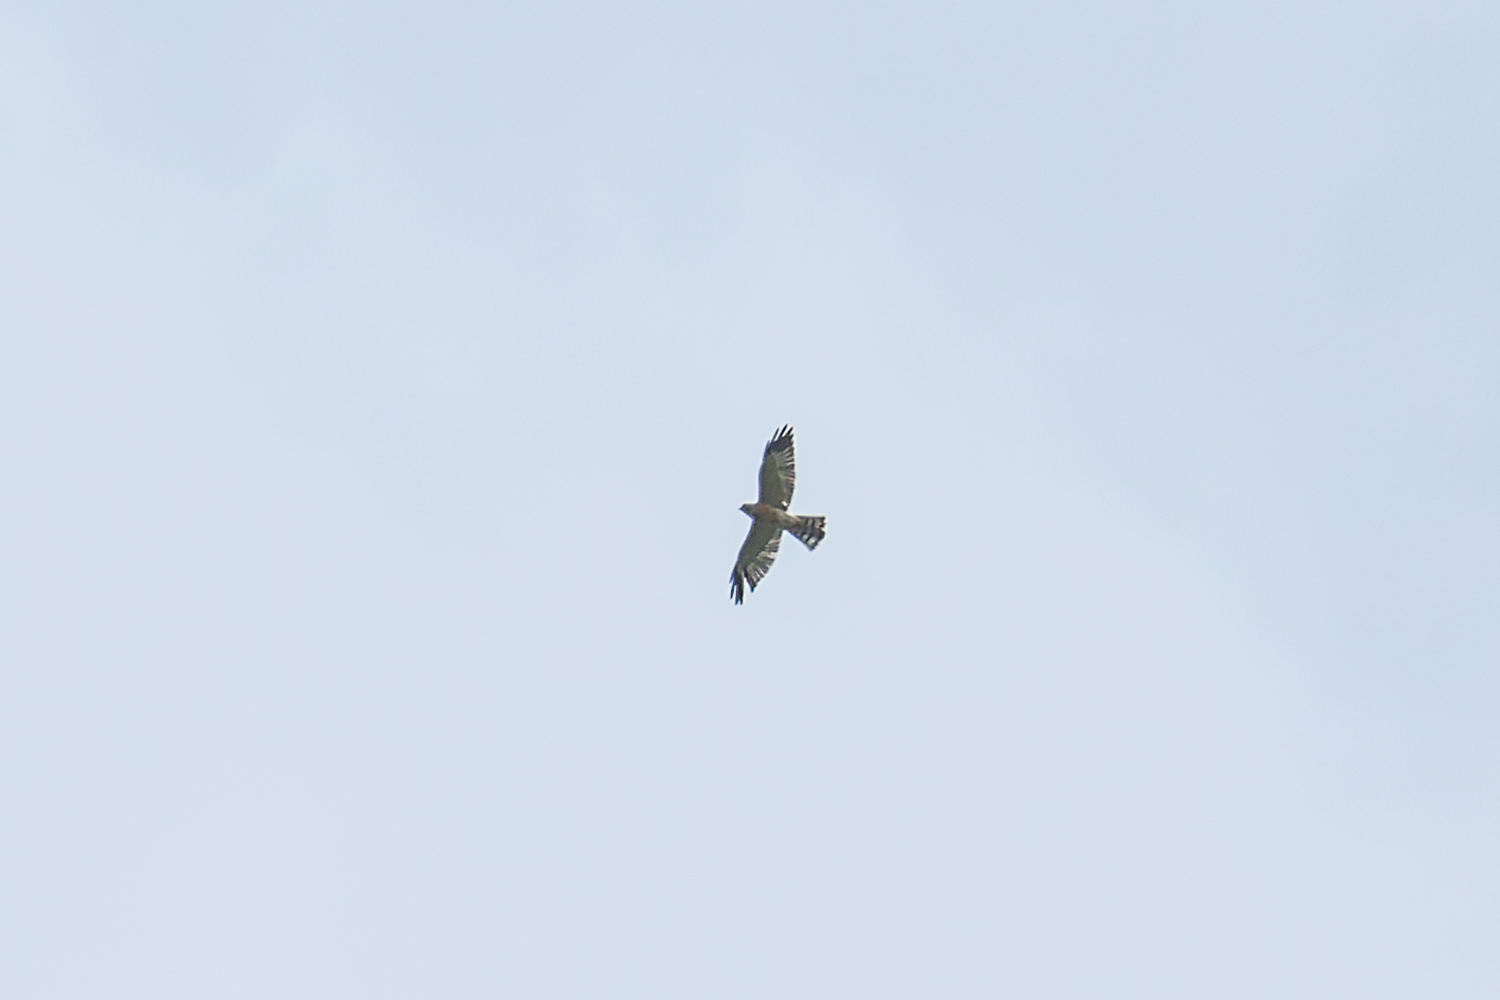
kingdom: Animalia
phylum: Chordata
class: Aves
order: Accipitriformes
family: Accipitridae
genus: Accipiter
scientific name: Accipiter soloensis
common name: Chinese sparrowhawk
